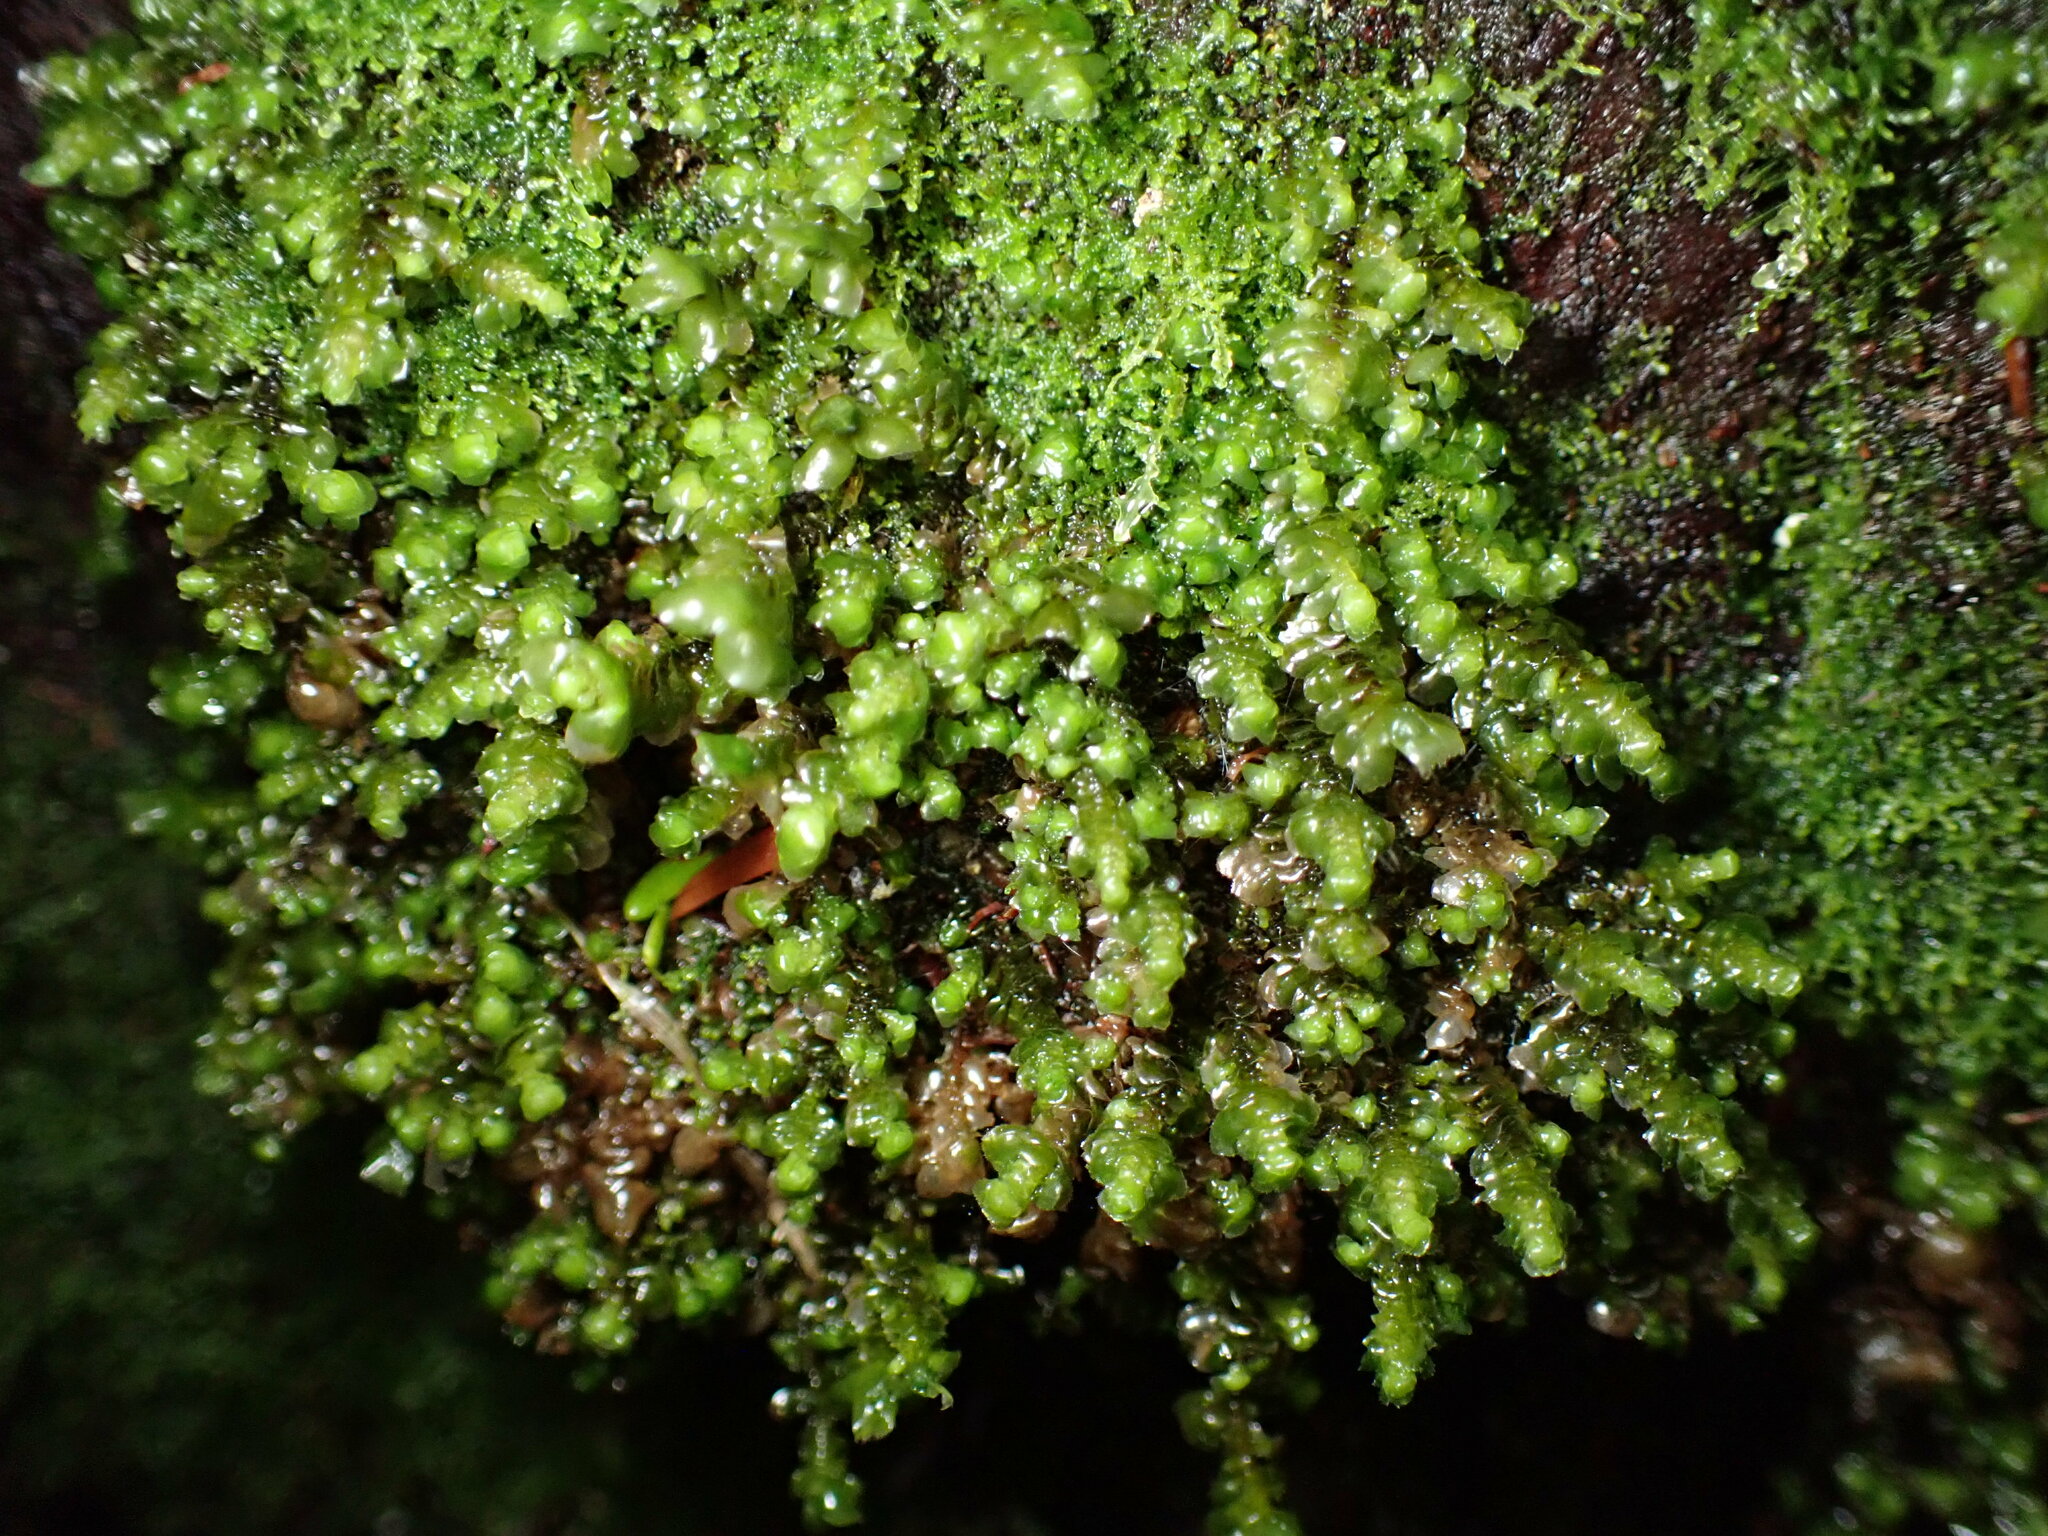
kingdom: Plantae
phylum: Marchantiophyta
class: Jungermanniopsida
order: Jungermanniales
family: Scapaniaceae
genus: Scapania
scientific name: Scapania bolanderi
